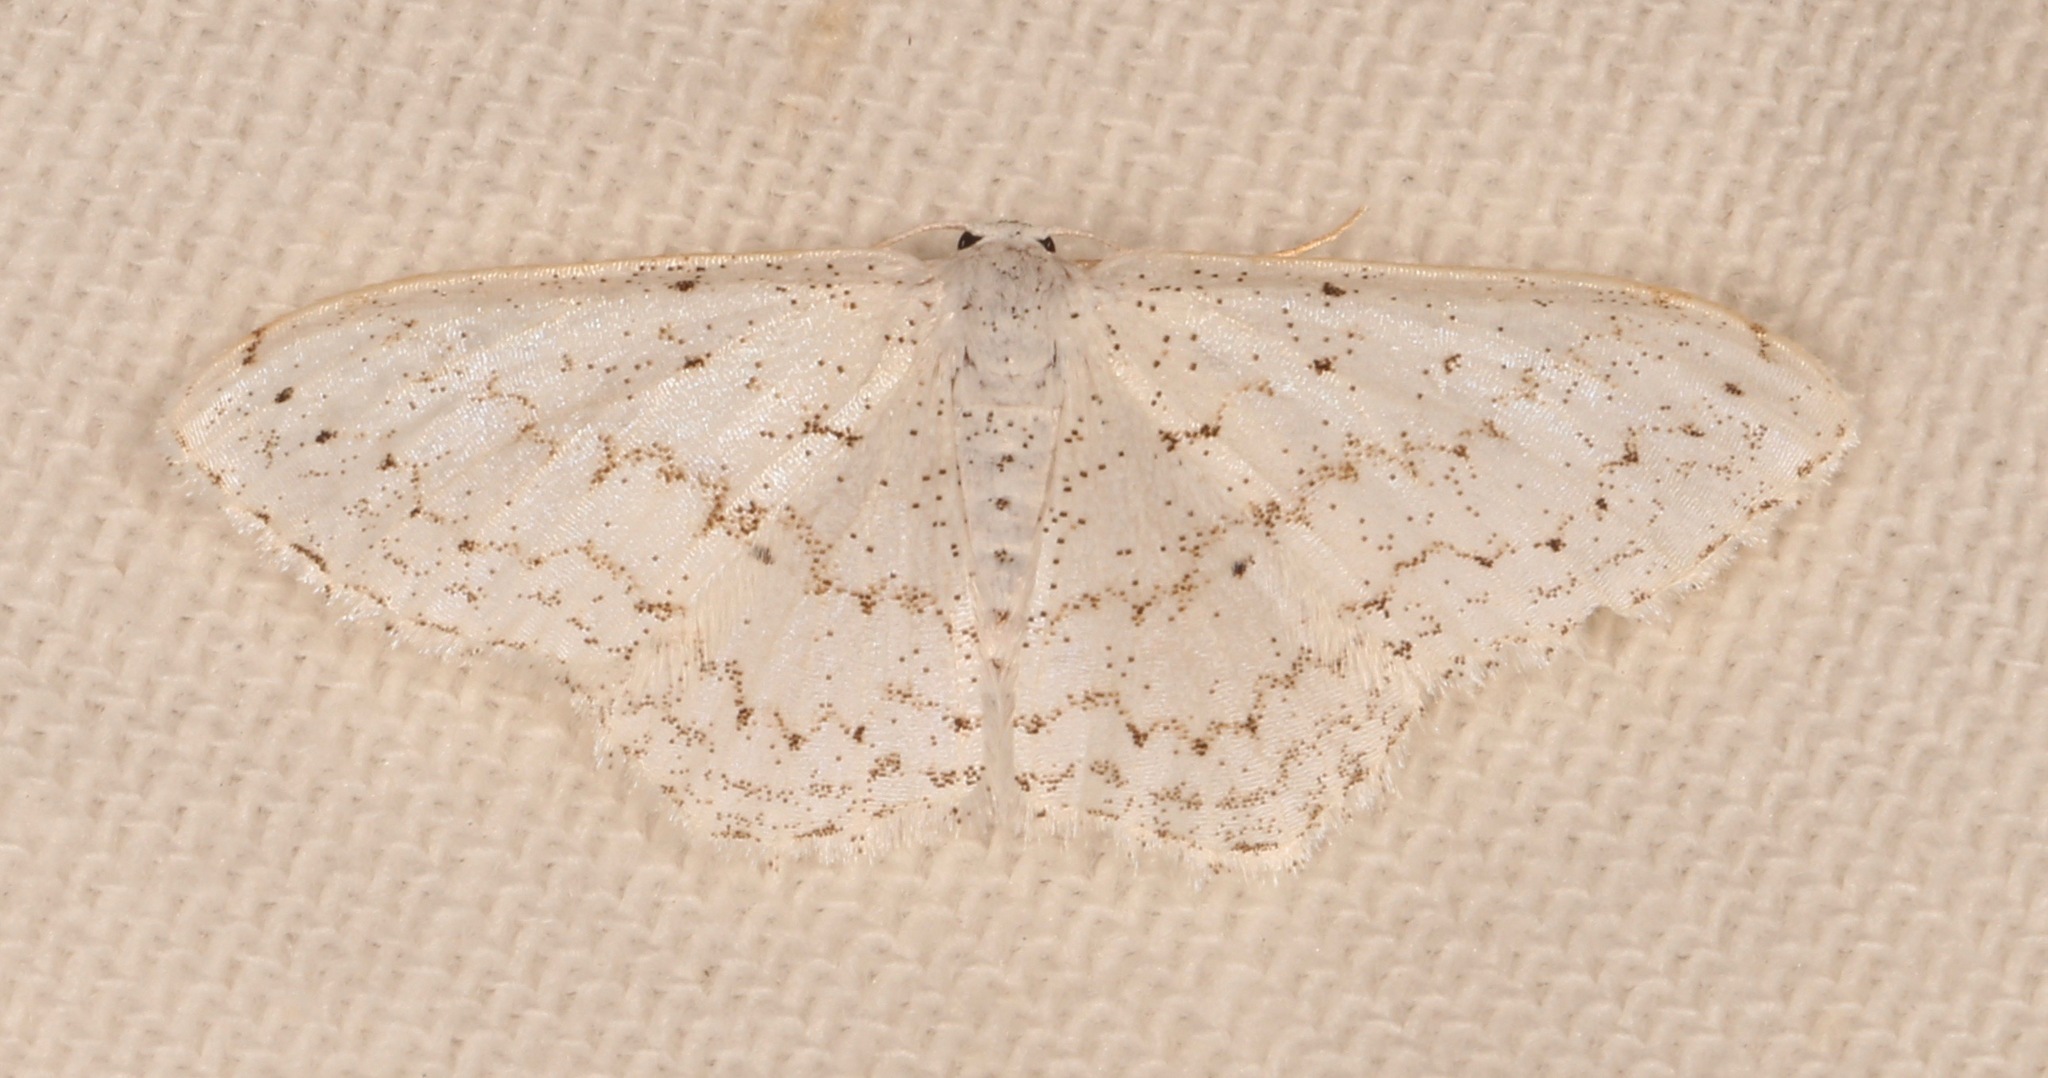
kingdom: Animalia
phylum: Arthropoda
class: Insecta
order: Lepidoptera
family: Geometridae
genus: Idaea
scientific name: Idaea tacturata
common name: Dot-lined wave
